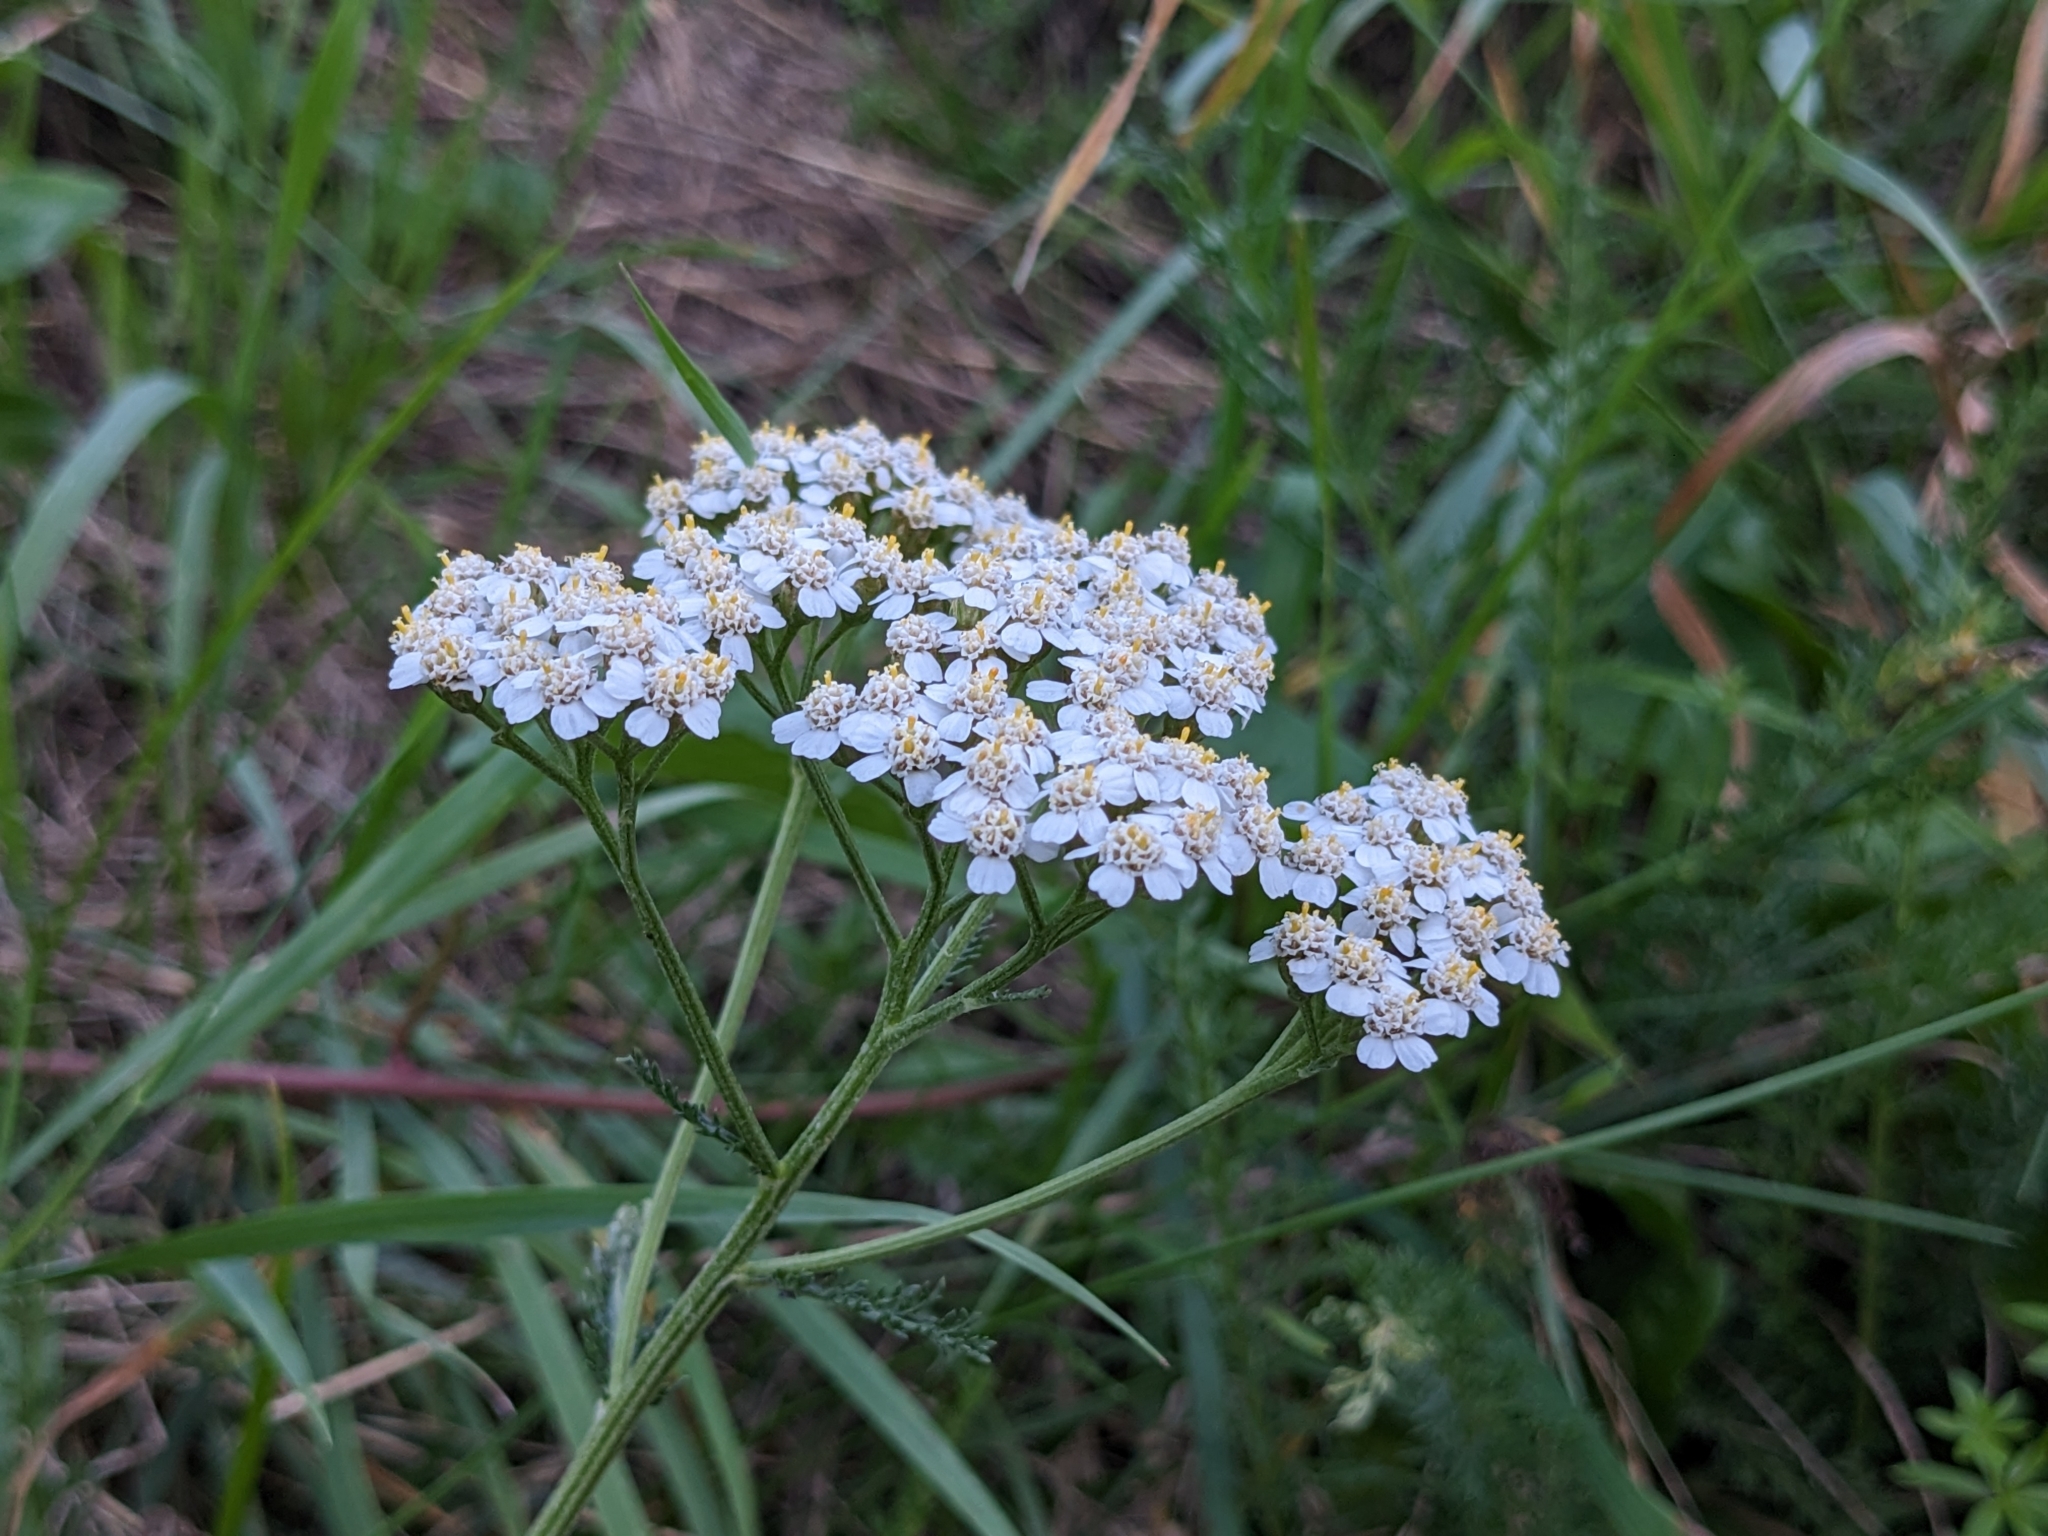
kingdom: Plantae
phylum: Tracheophyta
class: Magnoliopsida
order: Asterales
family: Asteraceae
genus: Achillea
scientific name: Achillea millefolium
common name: Yarrow
